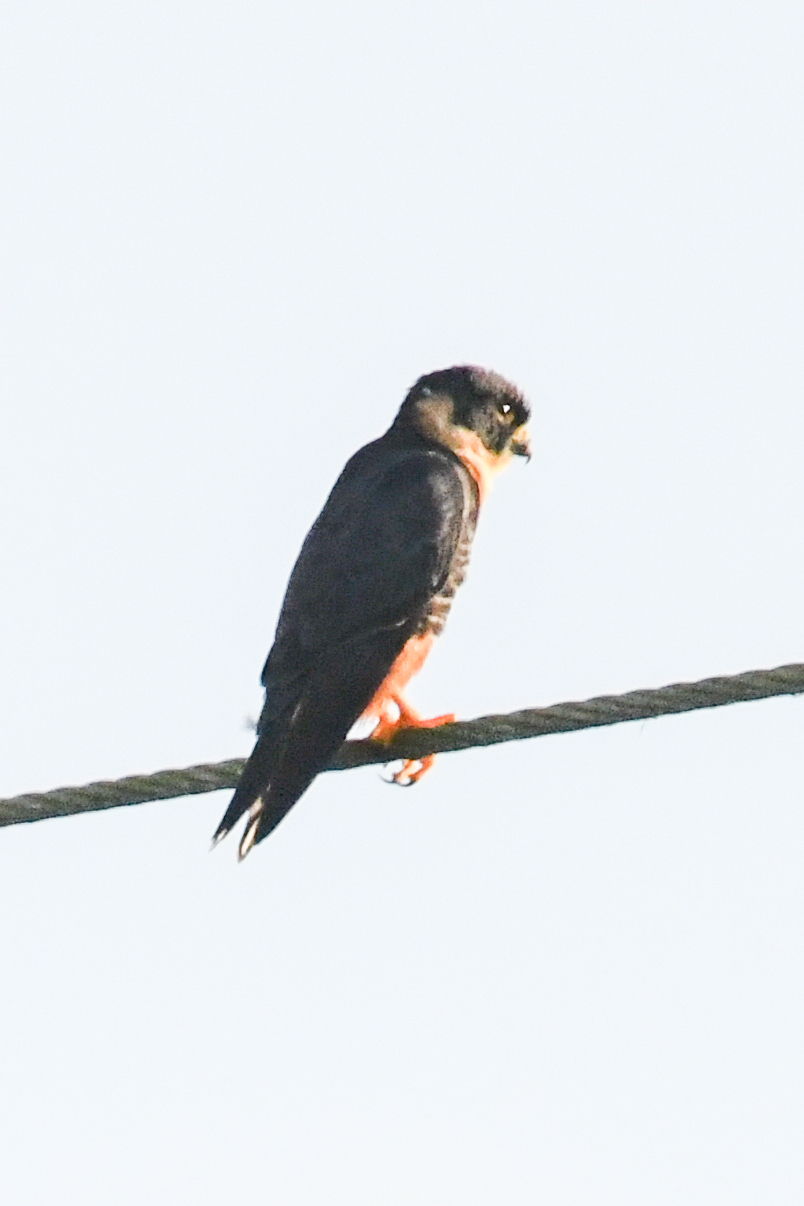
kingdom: Animalia
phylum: Chordata
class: Aves
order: Falconiformes
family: Falconidae
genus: Falco
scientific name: Falco rufigularis
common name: Bat falcon
